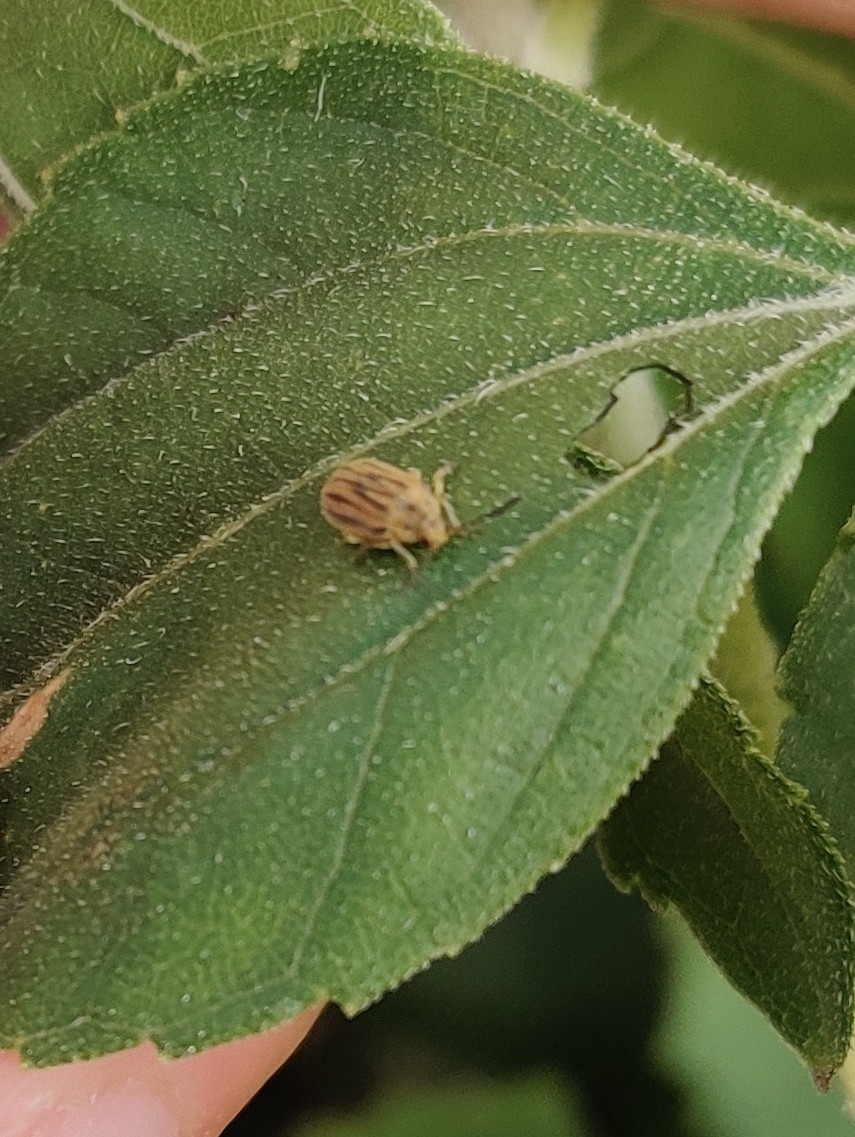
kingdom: Animalia
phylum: Arthropoda
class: Insecta
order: Coleoptera
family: Chrysomelidae
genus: Ophraella
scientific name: Ophraella communa
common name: Ragweed leaf beetle
